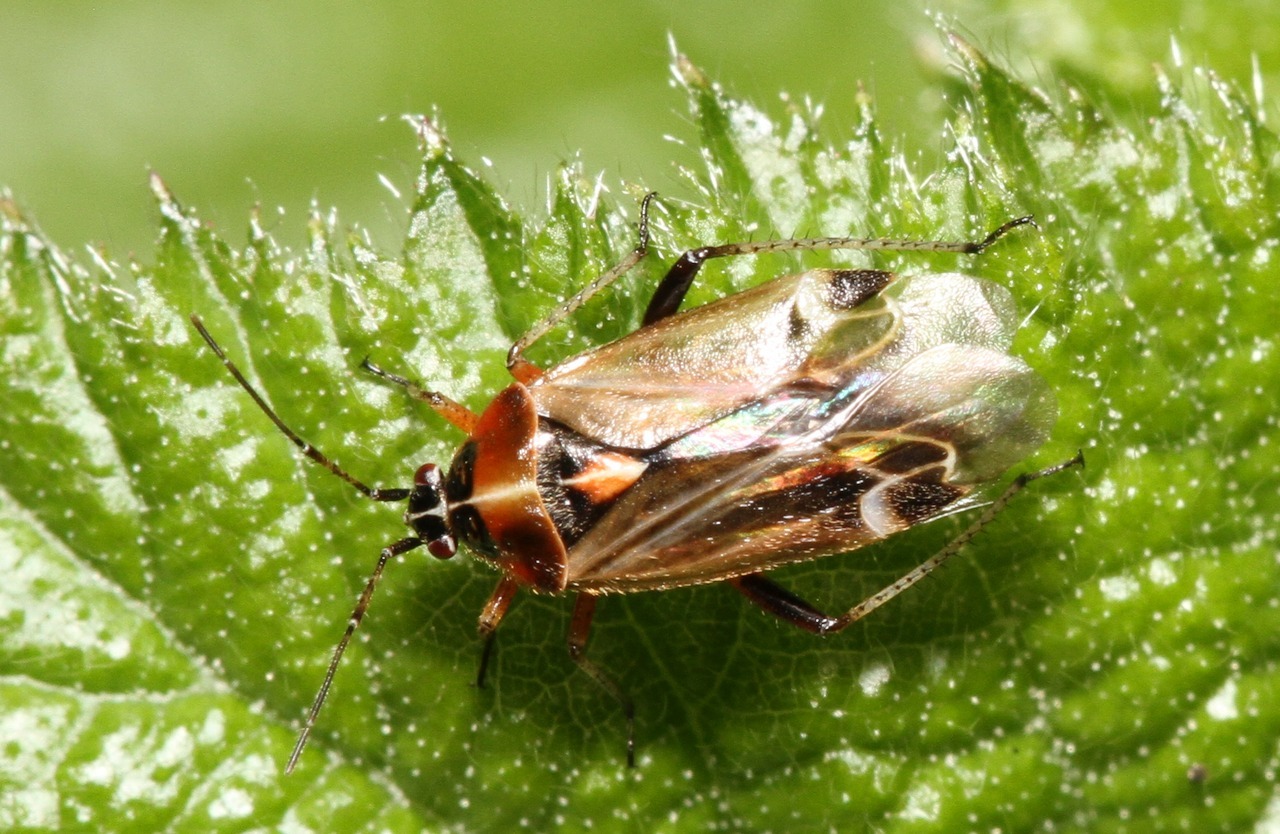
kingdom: Animalia
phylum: Arthropoda
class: Insecta
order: Hemiptera
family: Miridae
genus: Harpocera
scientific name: Harpocera thoracica
